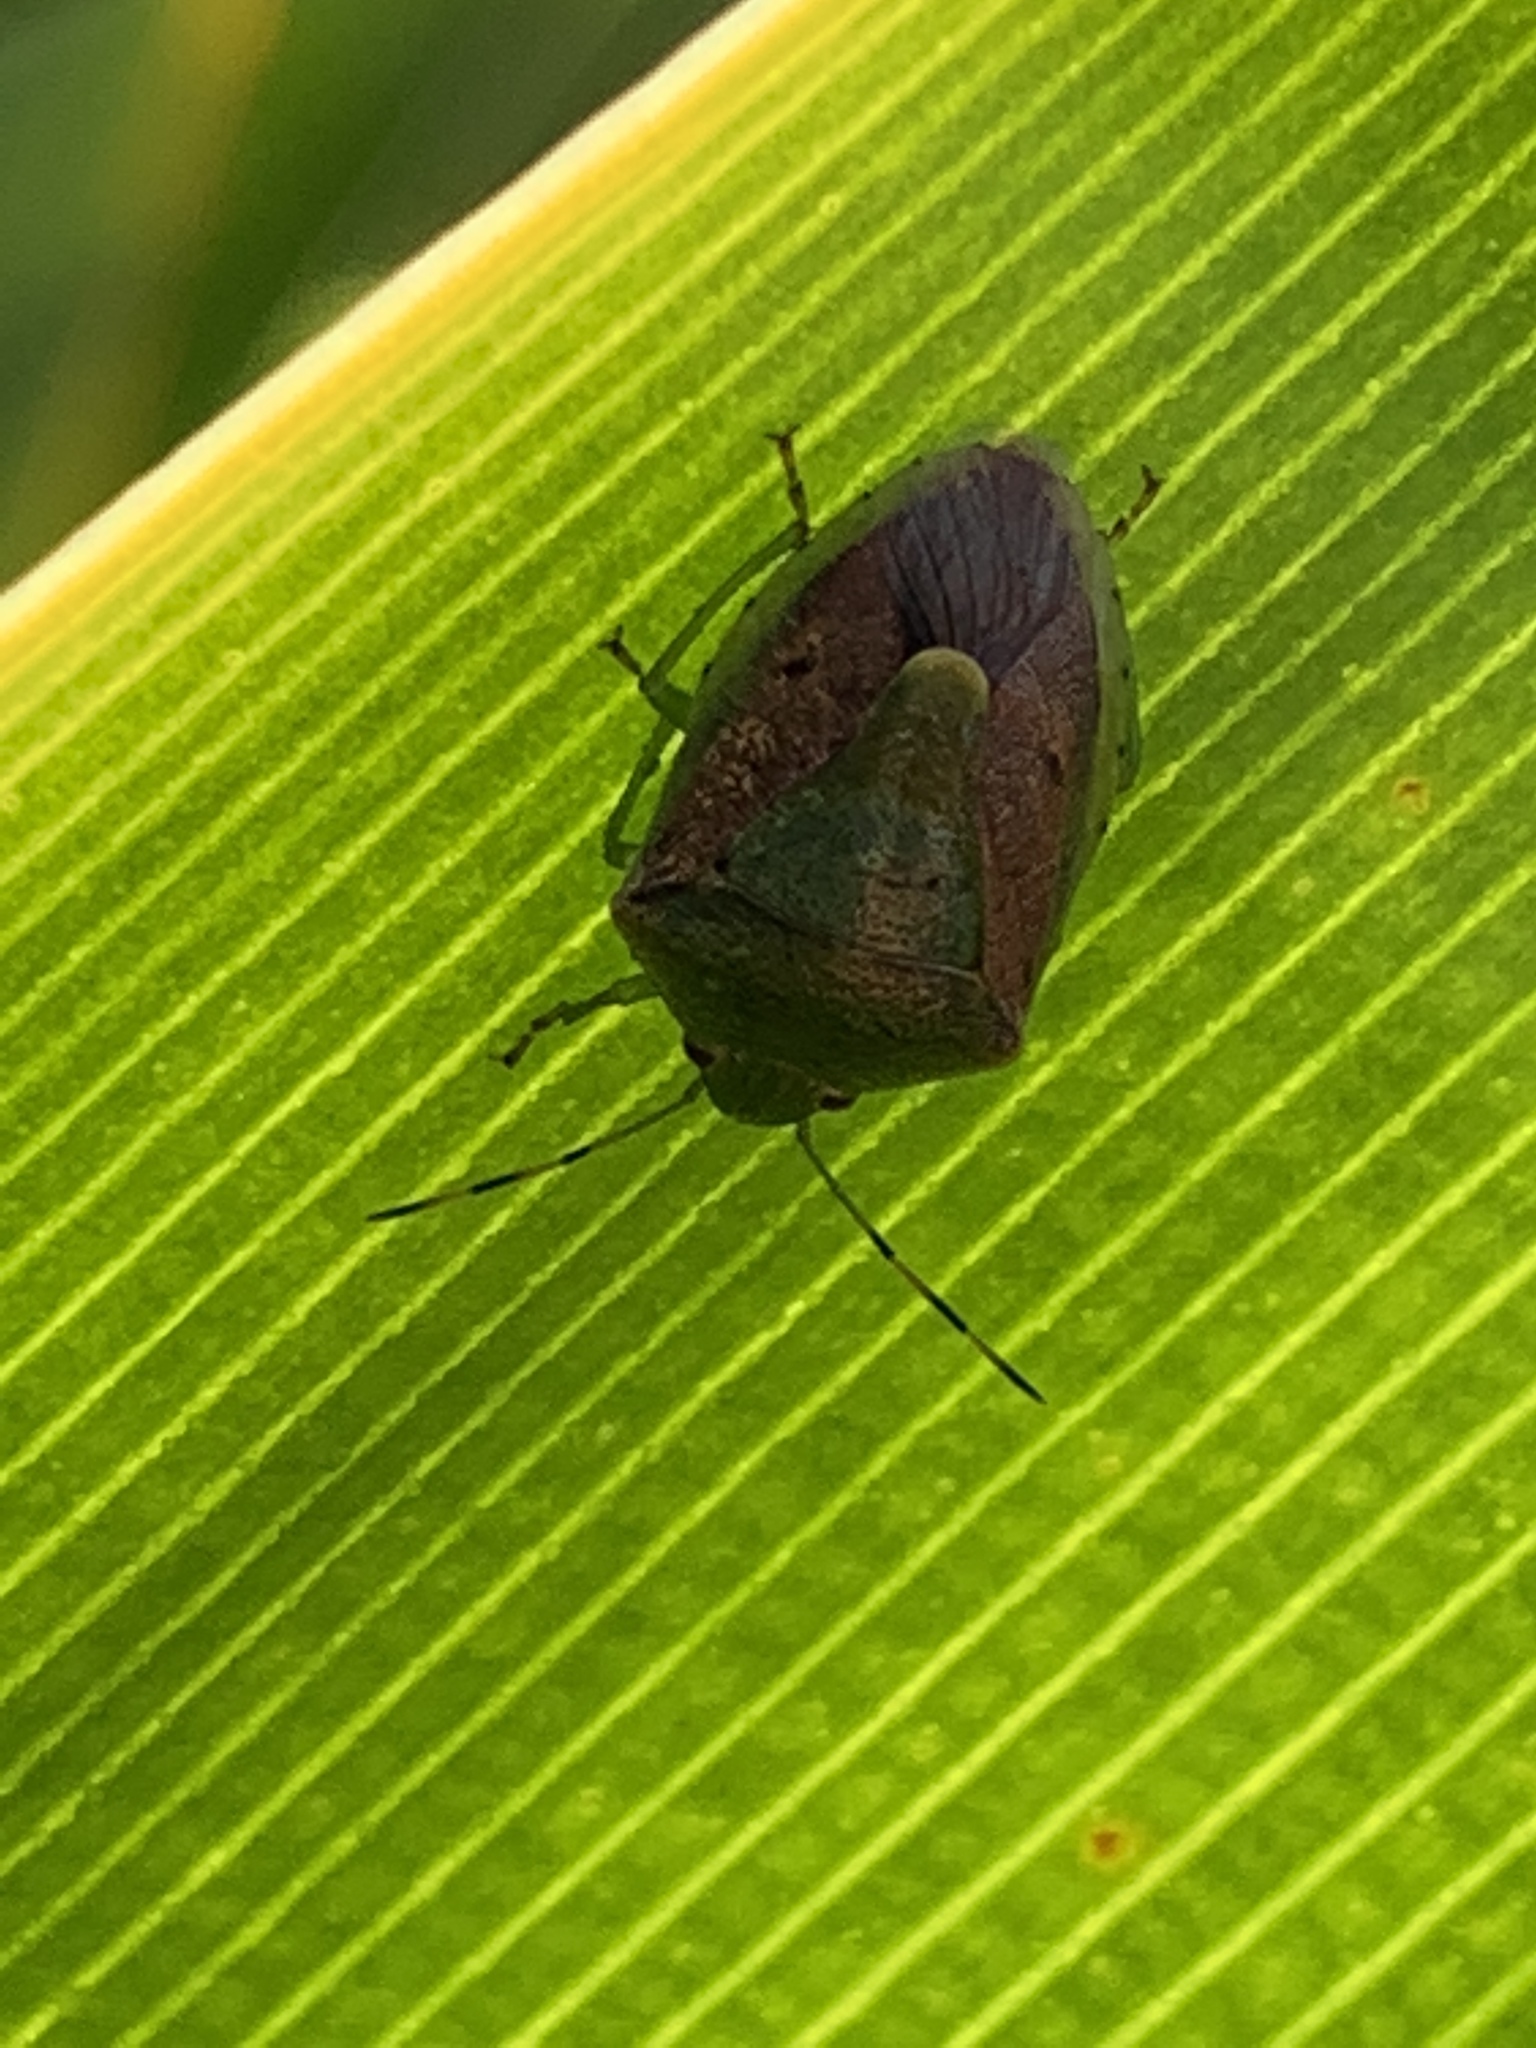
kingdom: Animalia
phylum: Arthropoda
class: Insecta
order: Hemiptera
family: Pentatomidae
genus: Plautia
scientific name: Plautia stali
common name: Stink bug
